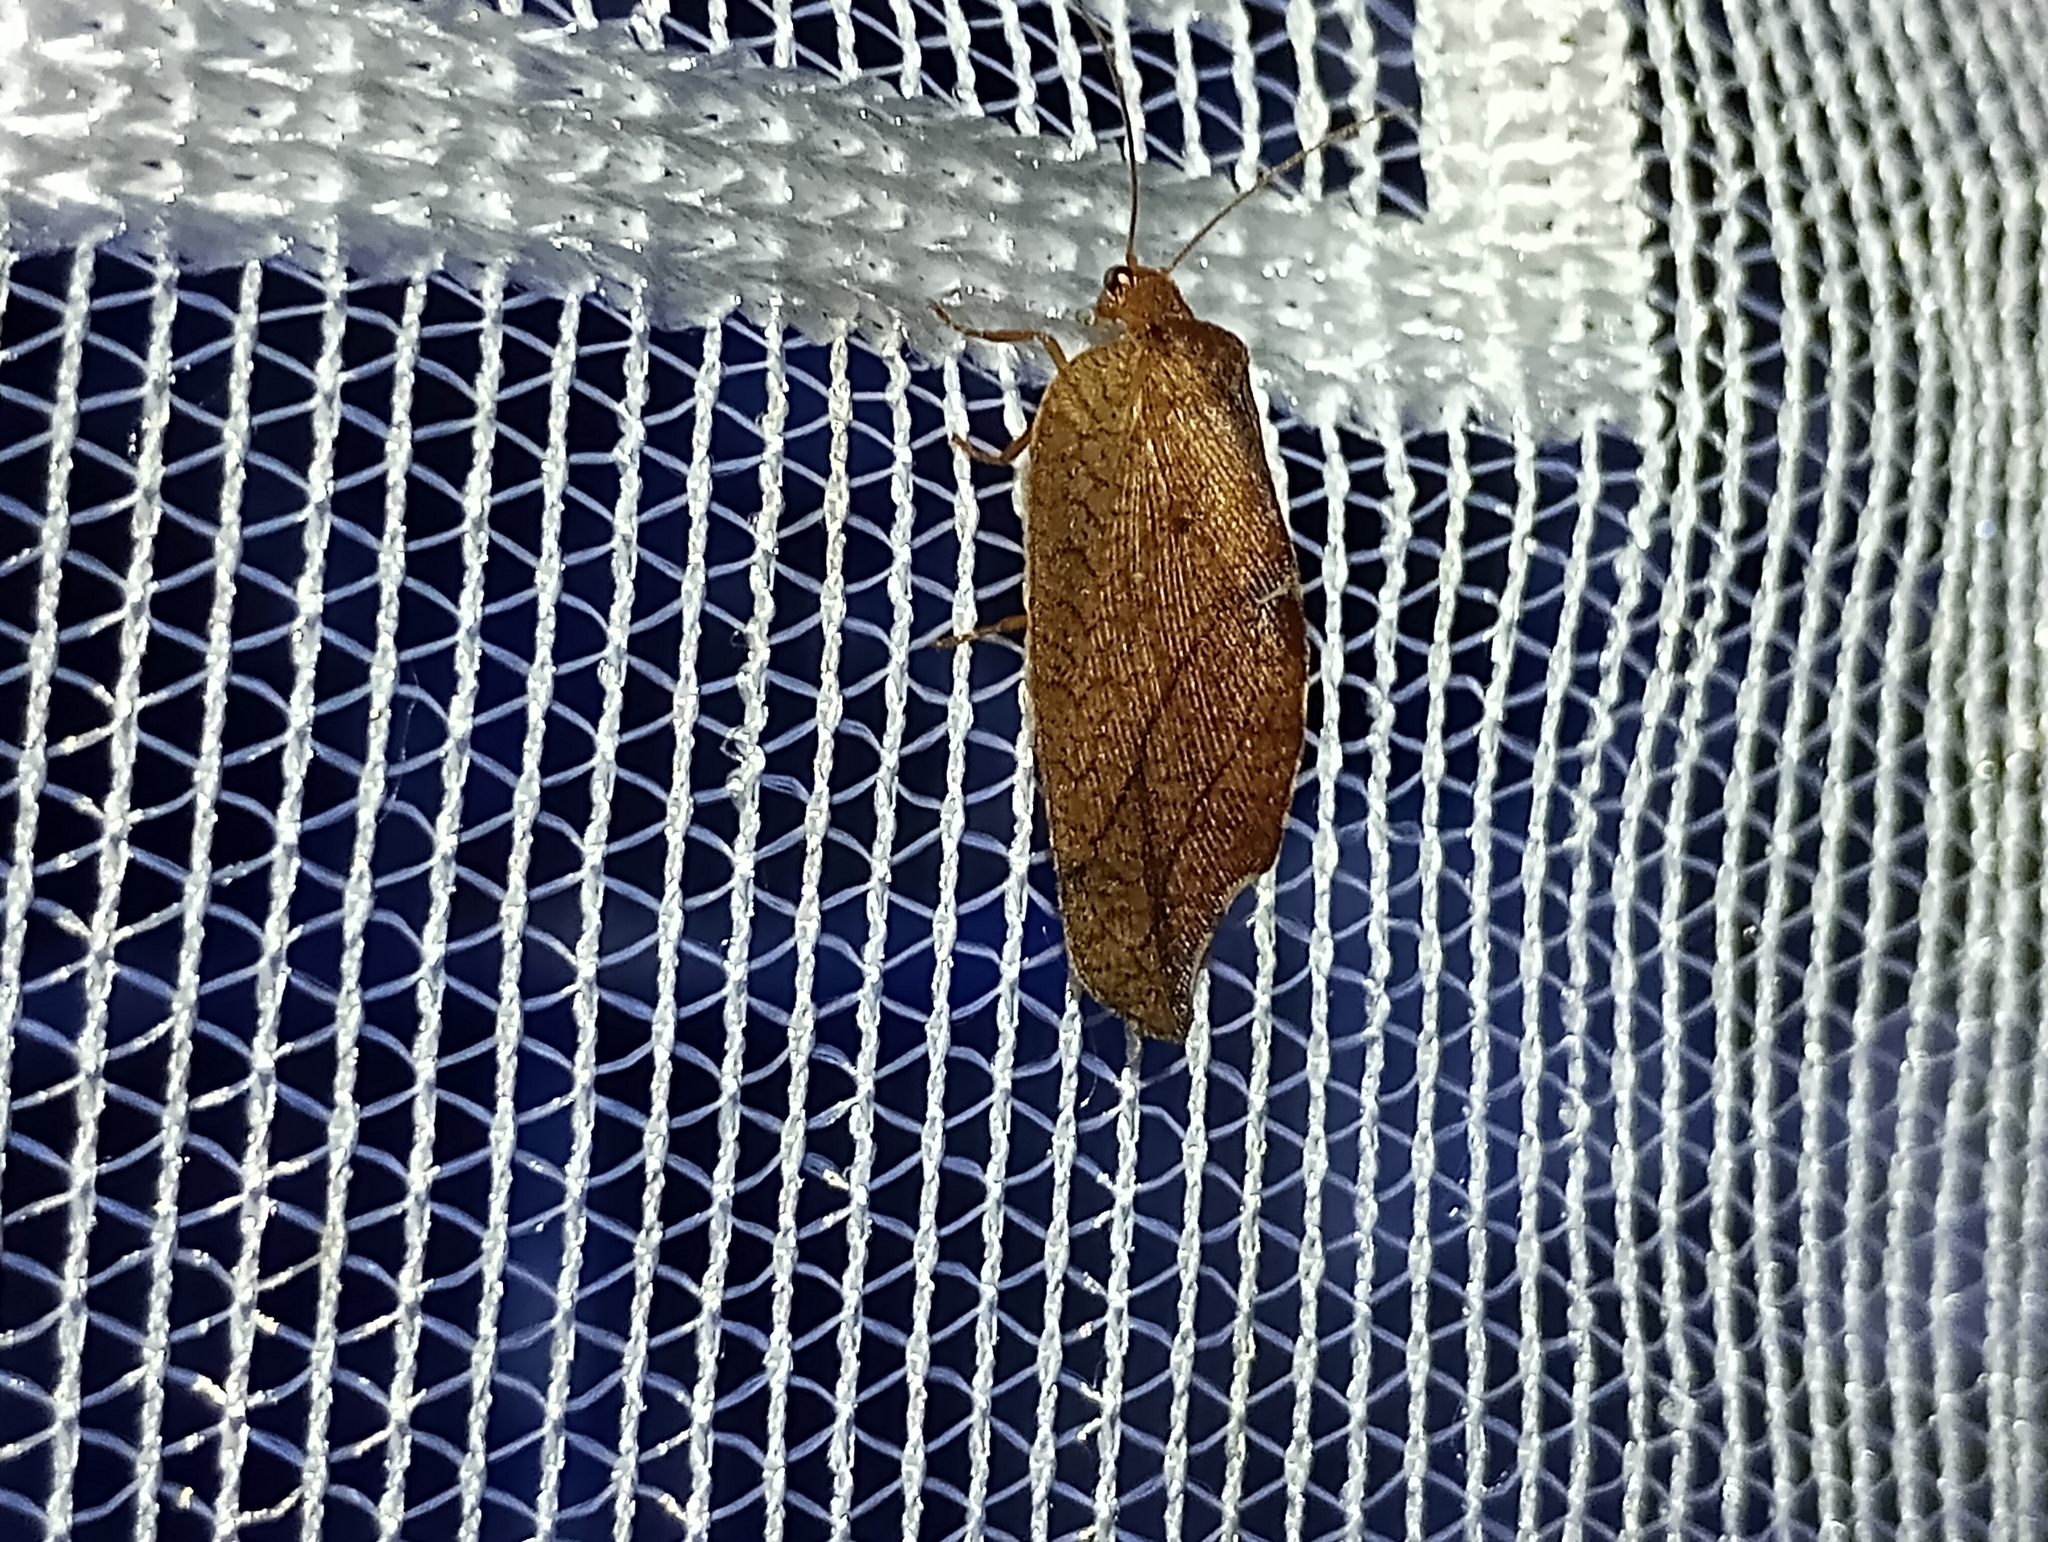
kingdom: Animalia
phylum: Arthropoda
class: Insecta
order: Neuroptera
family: Hemerobiidae
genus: Drepanepteryx
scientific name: Drepanepteryx phalaenoides
